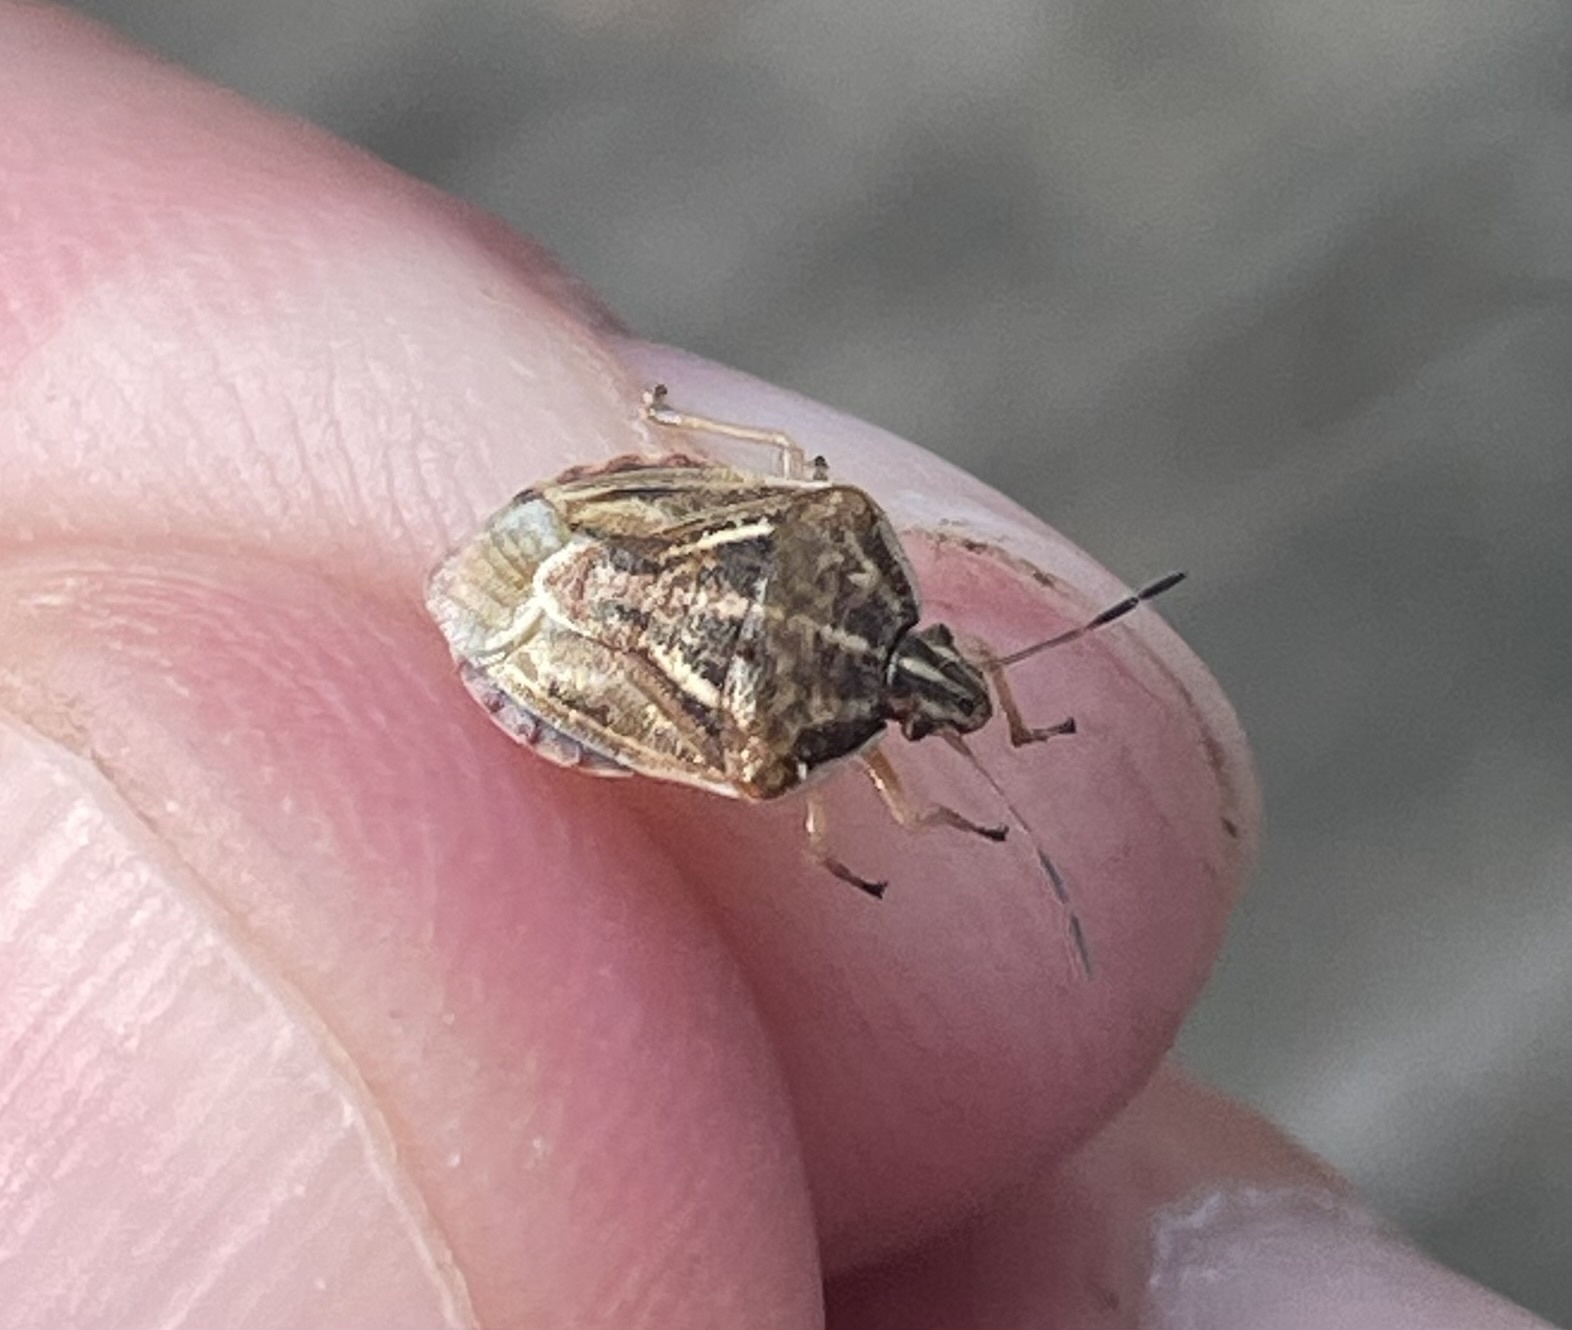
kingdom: Animalia
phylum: Arthropoda
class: Insecta
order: Hemiptera
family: Pentatomidae
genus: Trichopepla
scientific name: Trichopepla semivittata
